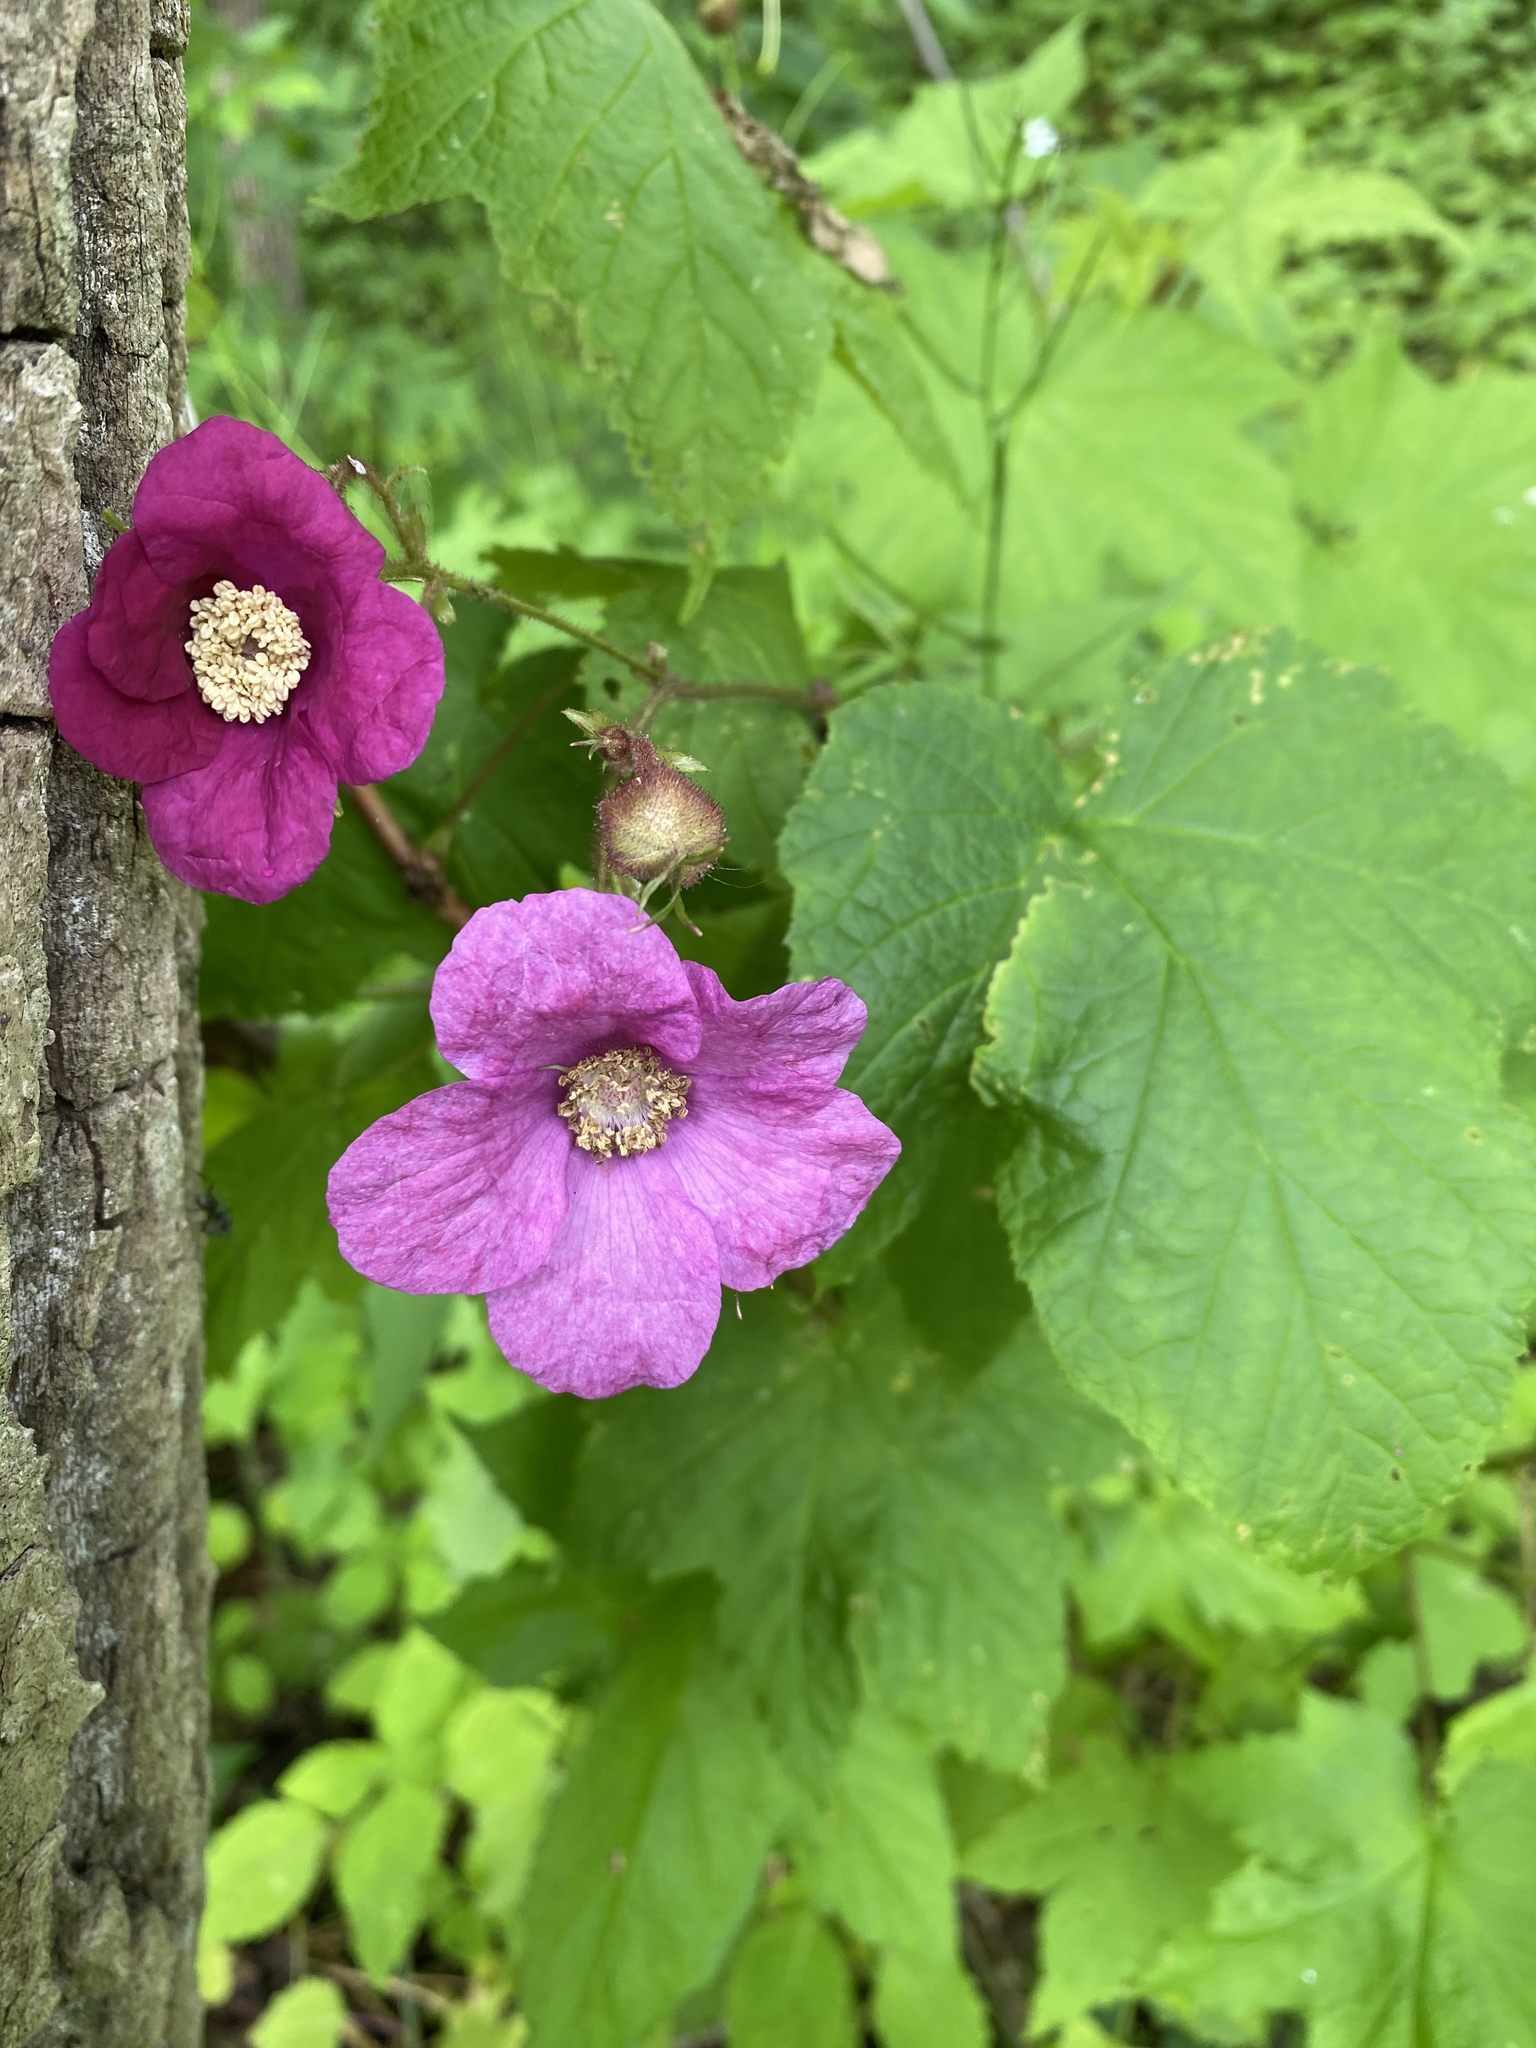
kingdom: Plantae
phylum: Tracheophyta
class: Magnoliopsida
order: Rosales
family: Rosaceae
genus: Rubus
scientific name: Rubus odoratus
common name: Purple-flowered raspberry
